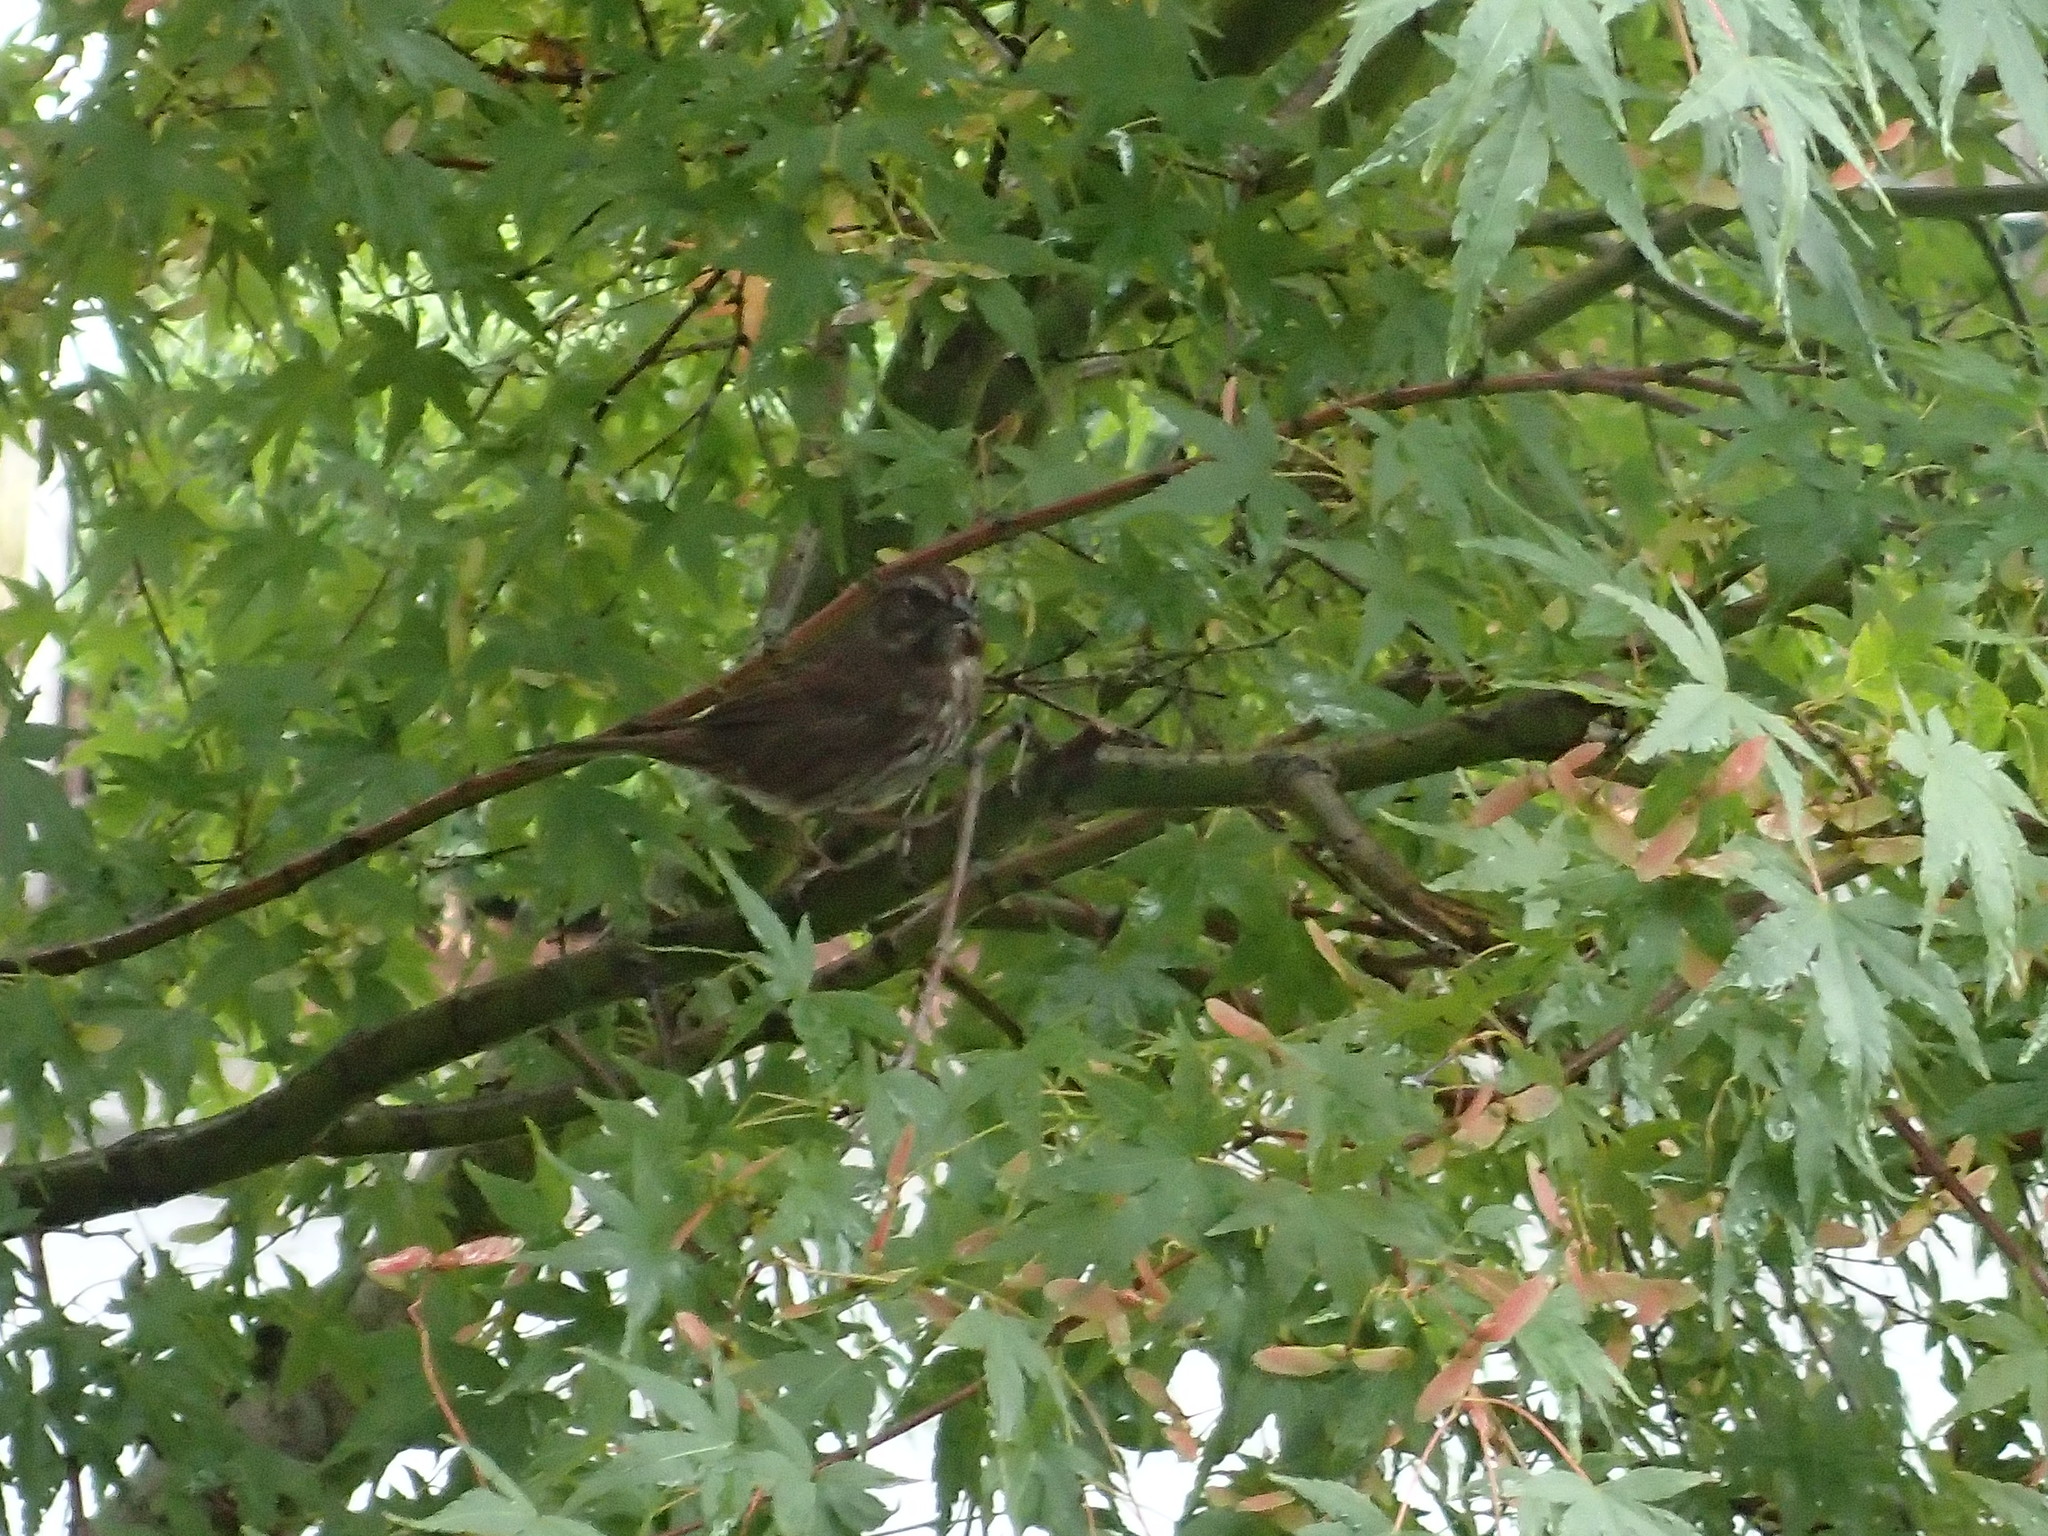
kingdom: Animalia
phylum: Chordata
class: Aves
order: Passeriformes
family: Passerellidae
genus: Melospiza
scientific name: Melospiza melodia
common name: Song sparrow
